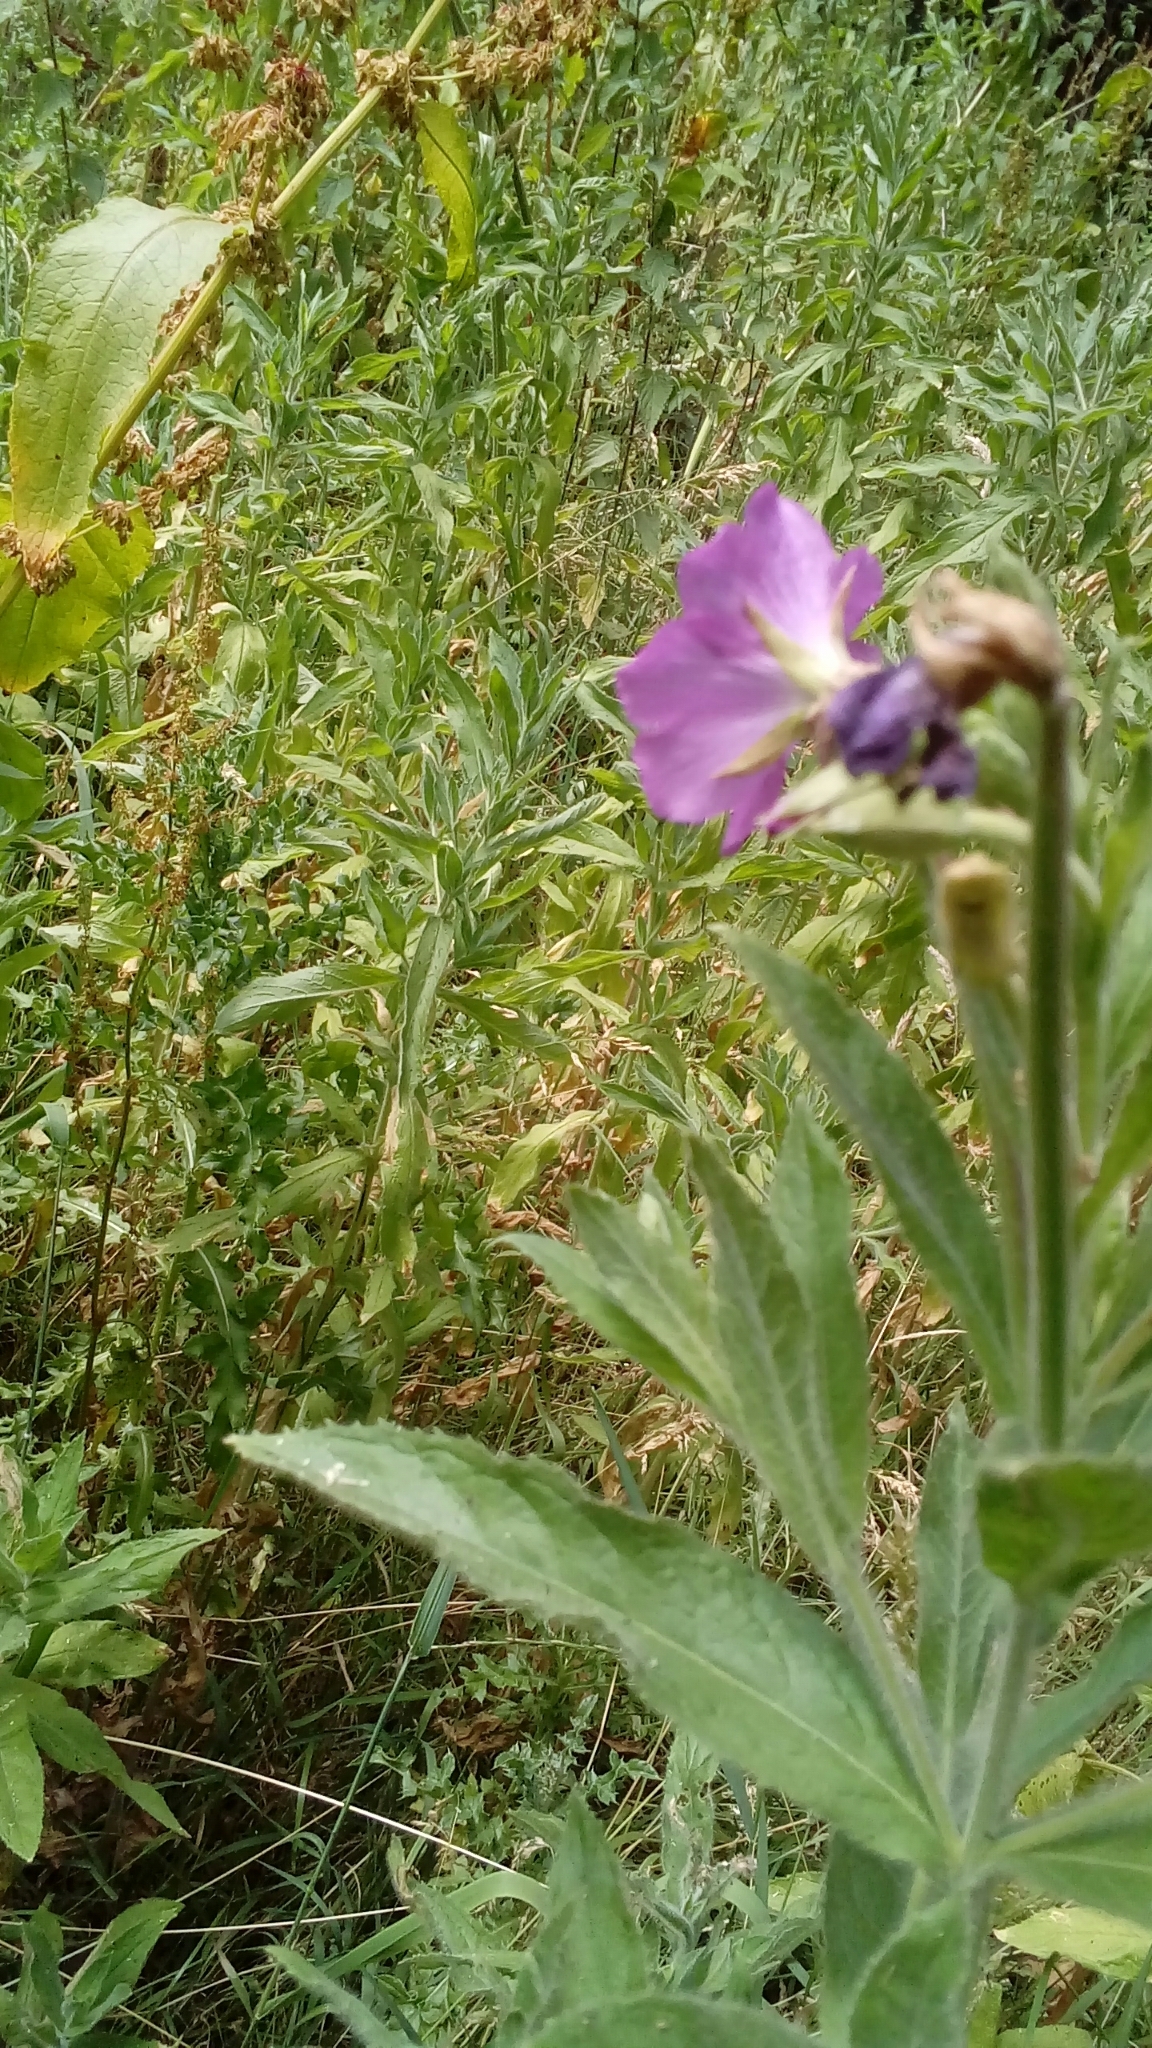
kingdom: Plantae
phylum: Tracheophyta
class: Magnoliopsida
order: Myrtales
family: Onagraceae
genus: Epilobium
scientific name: Epilobium hirsutum
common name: Great willowherb
